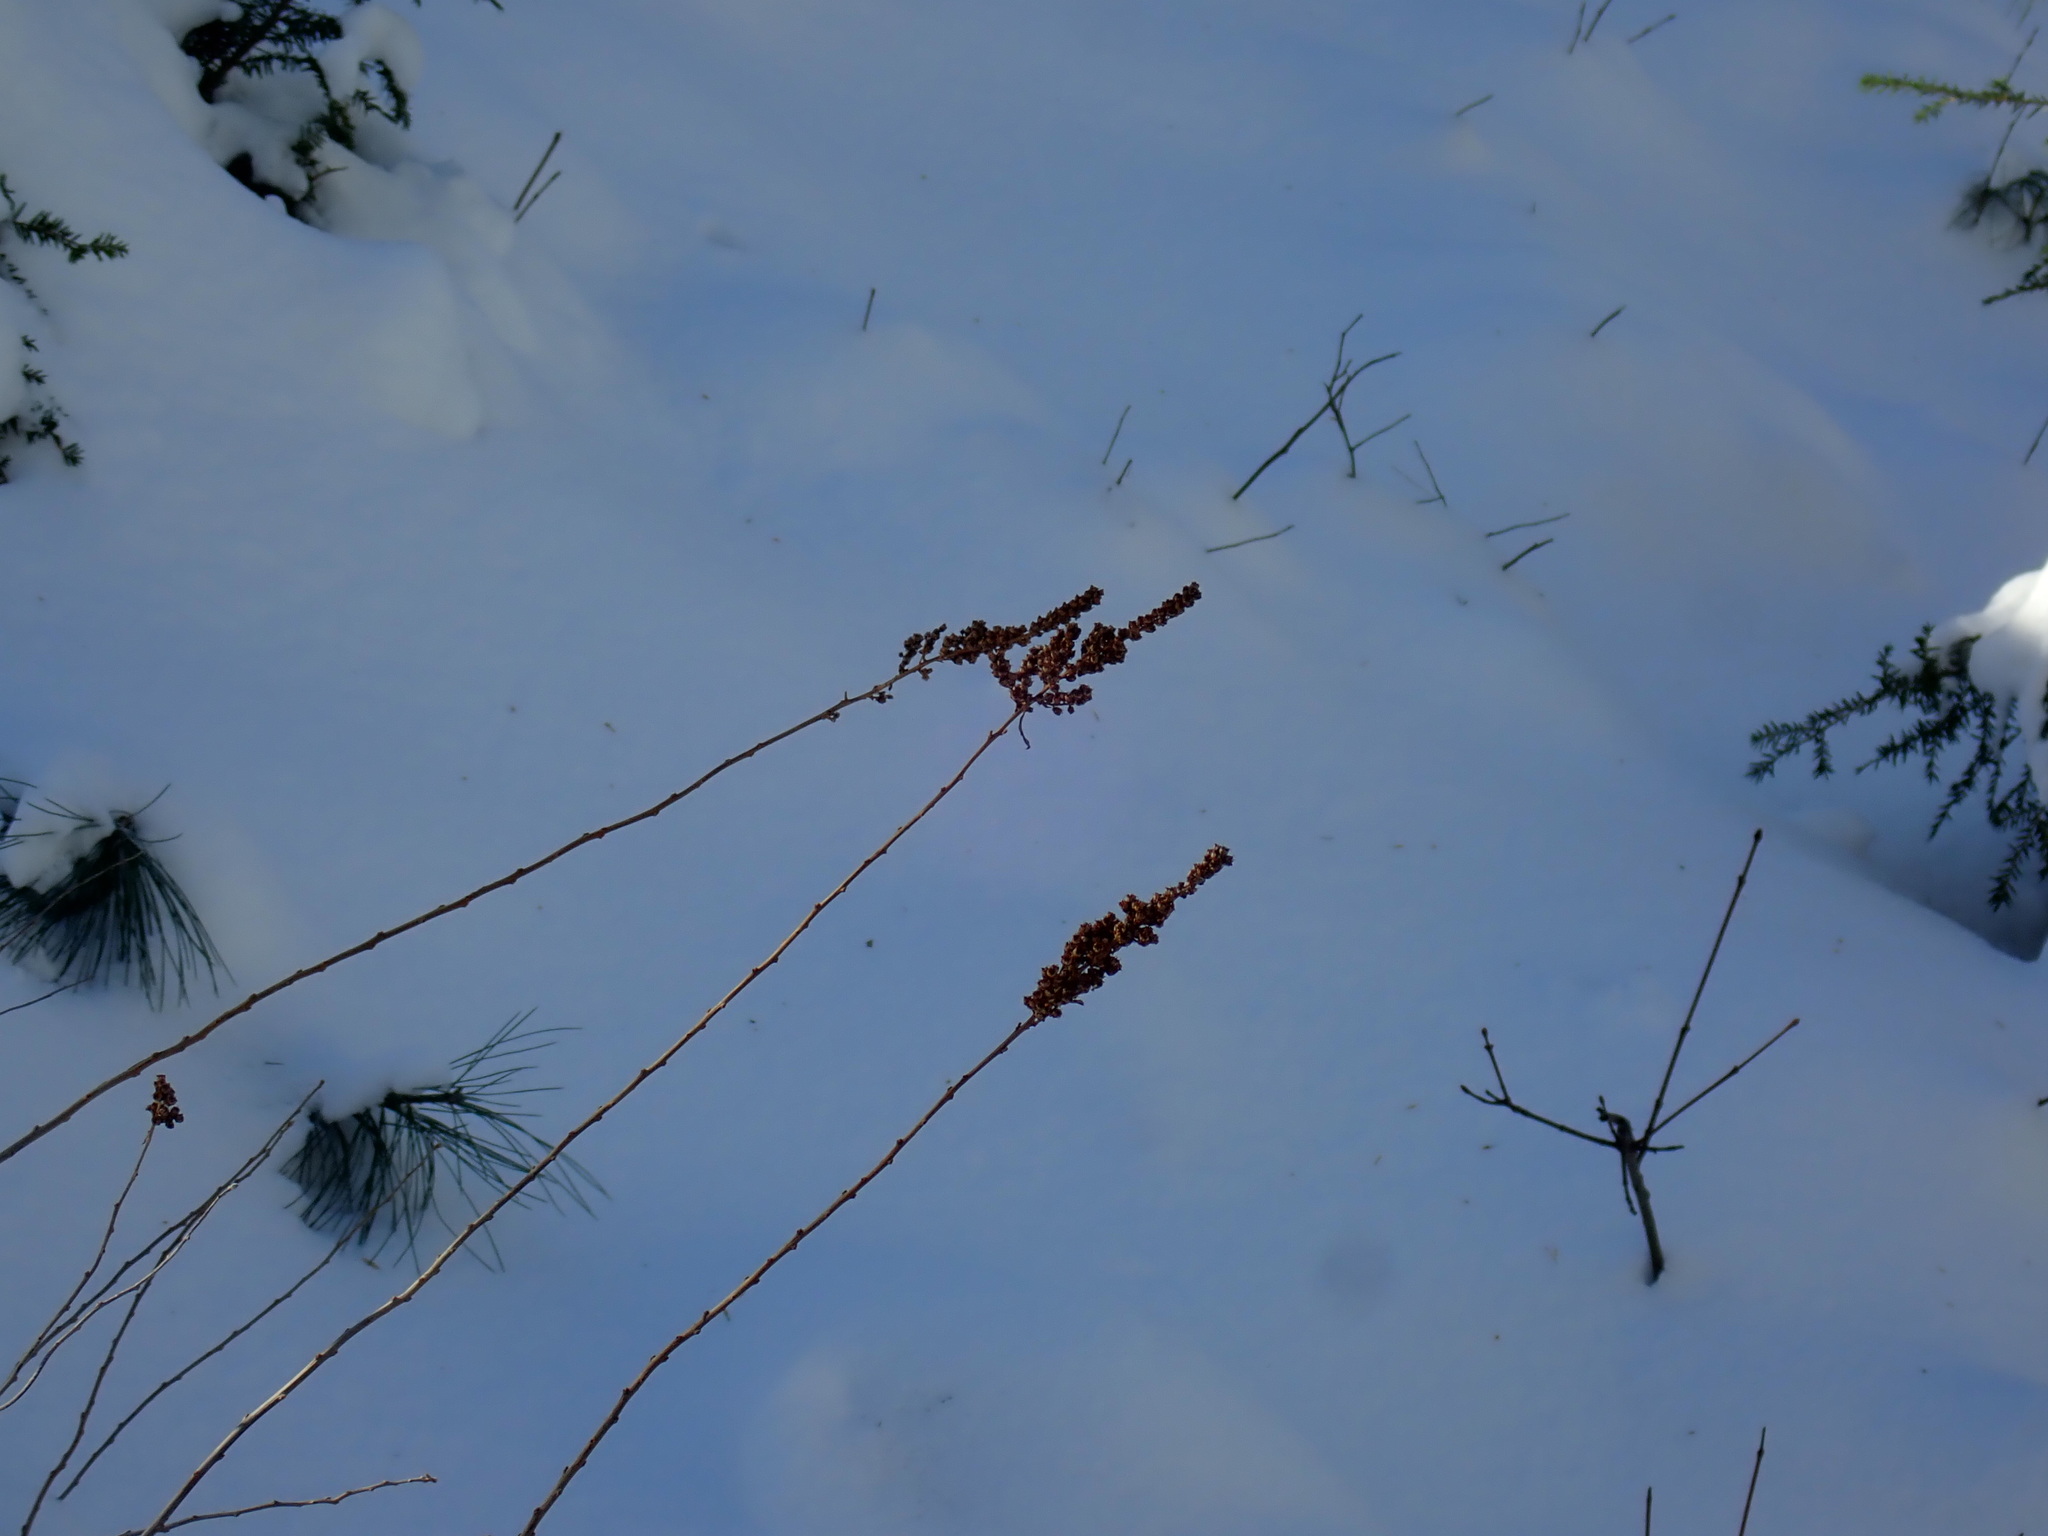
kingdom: Plantae
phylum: Tracheophyta
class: Magnoliopsida
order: Rosales
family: Rosaceae
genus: Spiraea
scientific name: Spiraea tomentosa
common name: Hardhack
